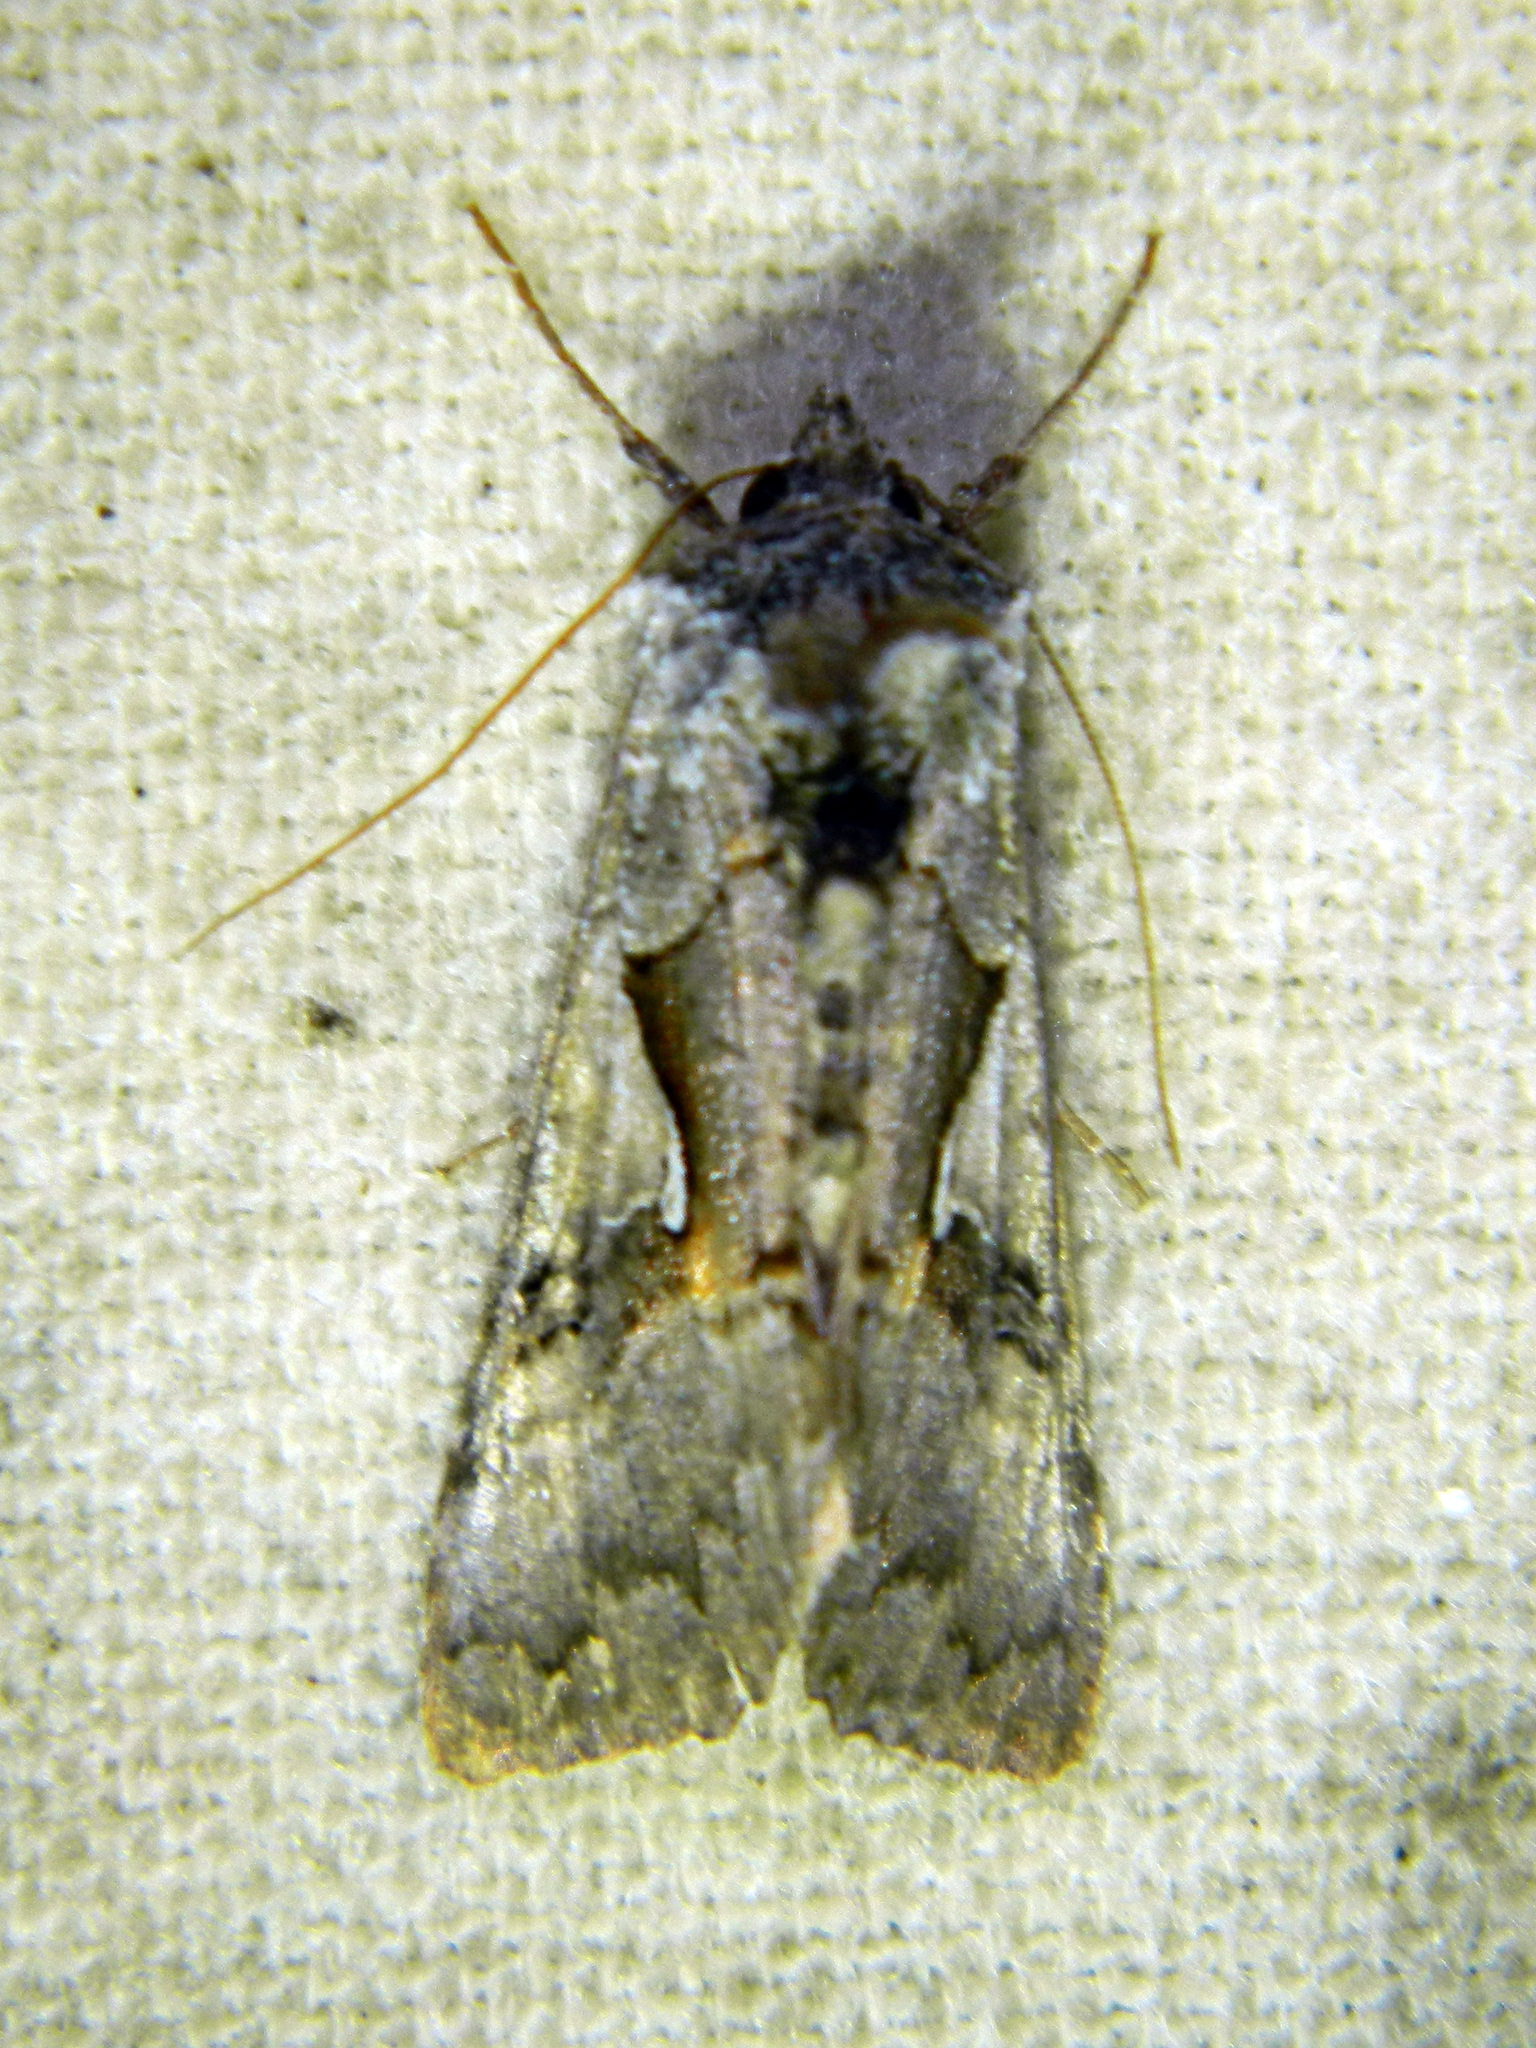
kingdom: Animalia
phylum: Arthropoda
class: Insecta
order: Lepidoptera
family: Noctuidae
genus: Syngrapha
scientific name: Syngrapha epigaea
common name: Epigaea looper moth
